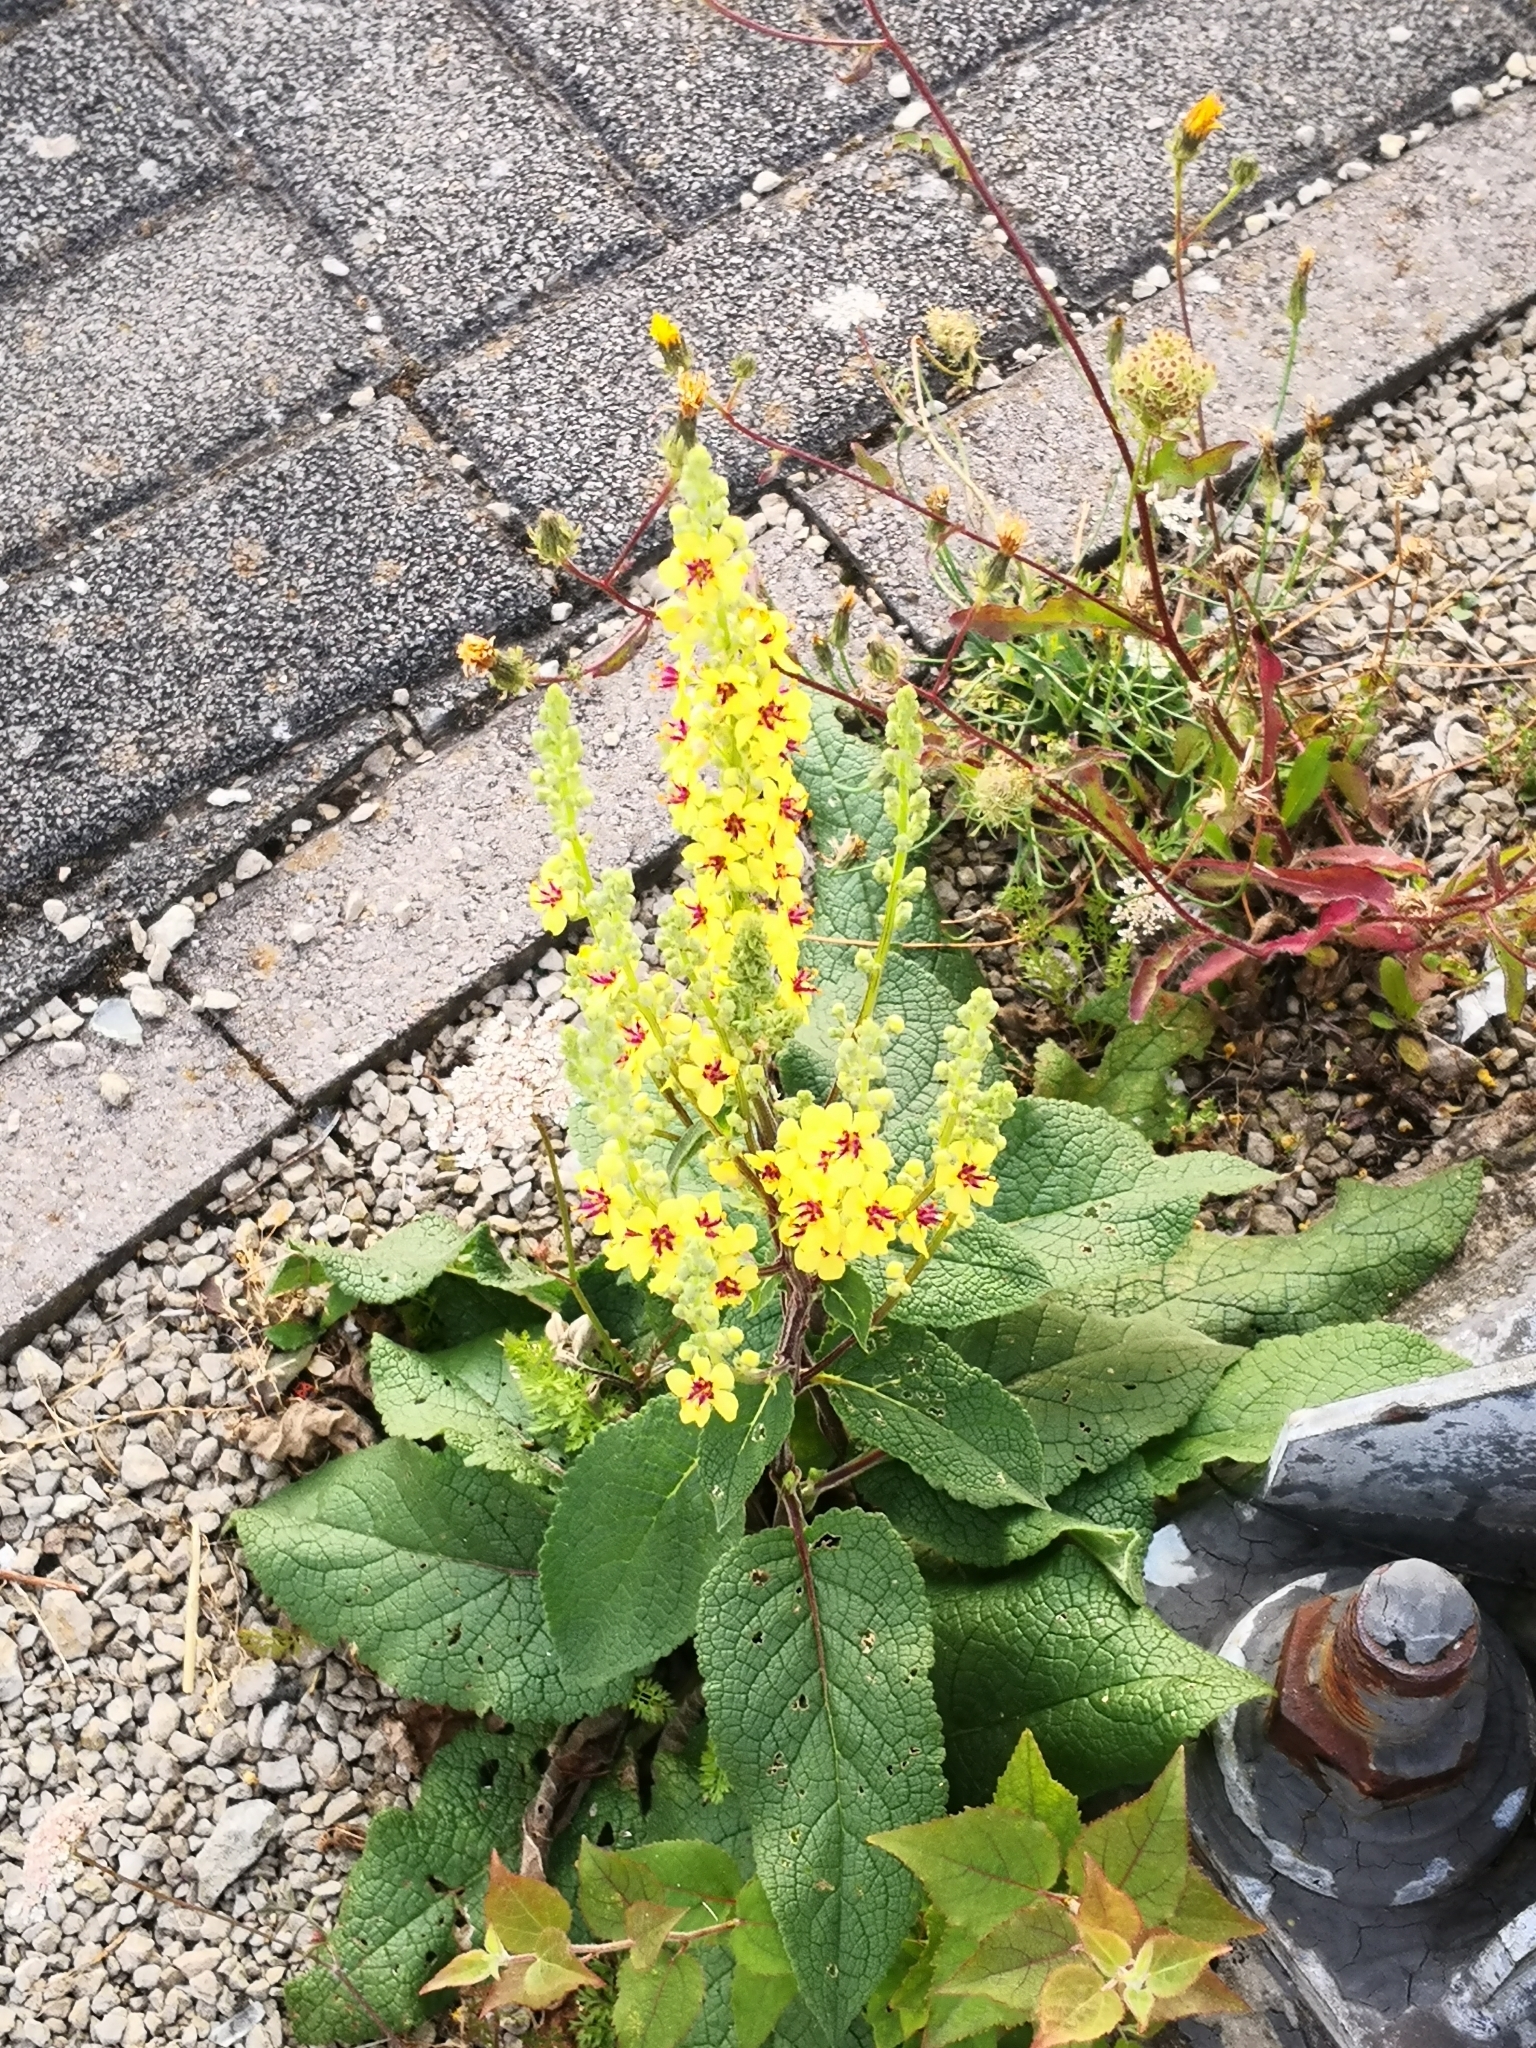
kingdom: Plantae
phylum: Tracheophyta
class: Magnoliopsida
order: Lamiales
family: Scrophulariaceae
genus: Verbascum
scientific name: Verbascum nigrum
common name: Dark mullein
